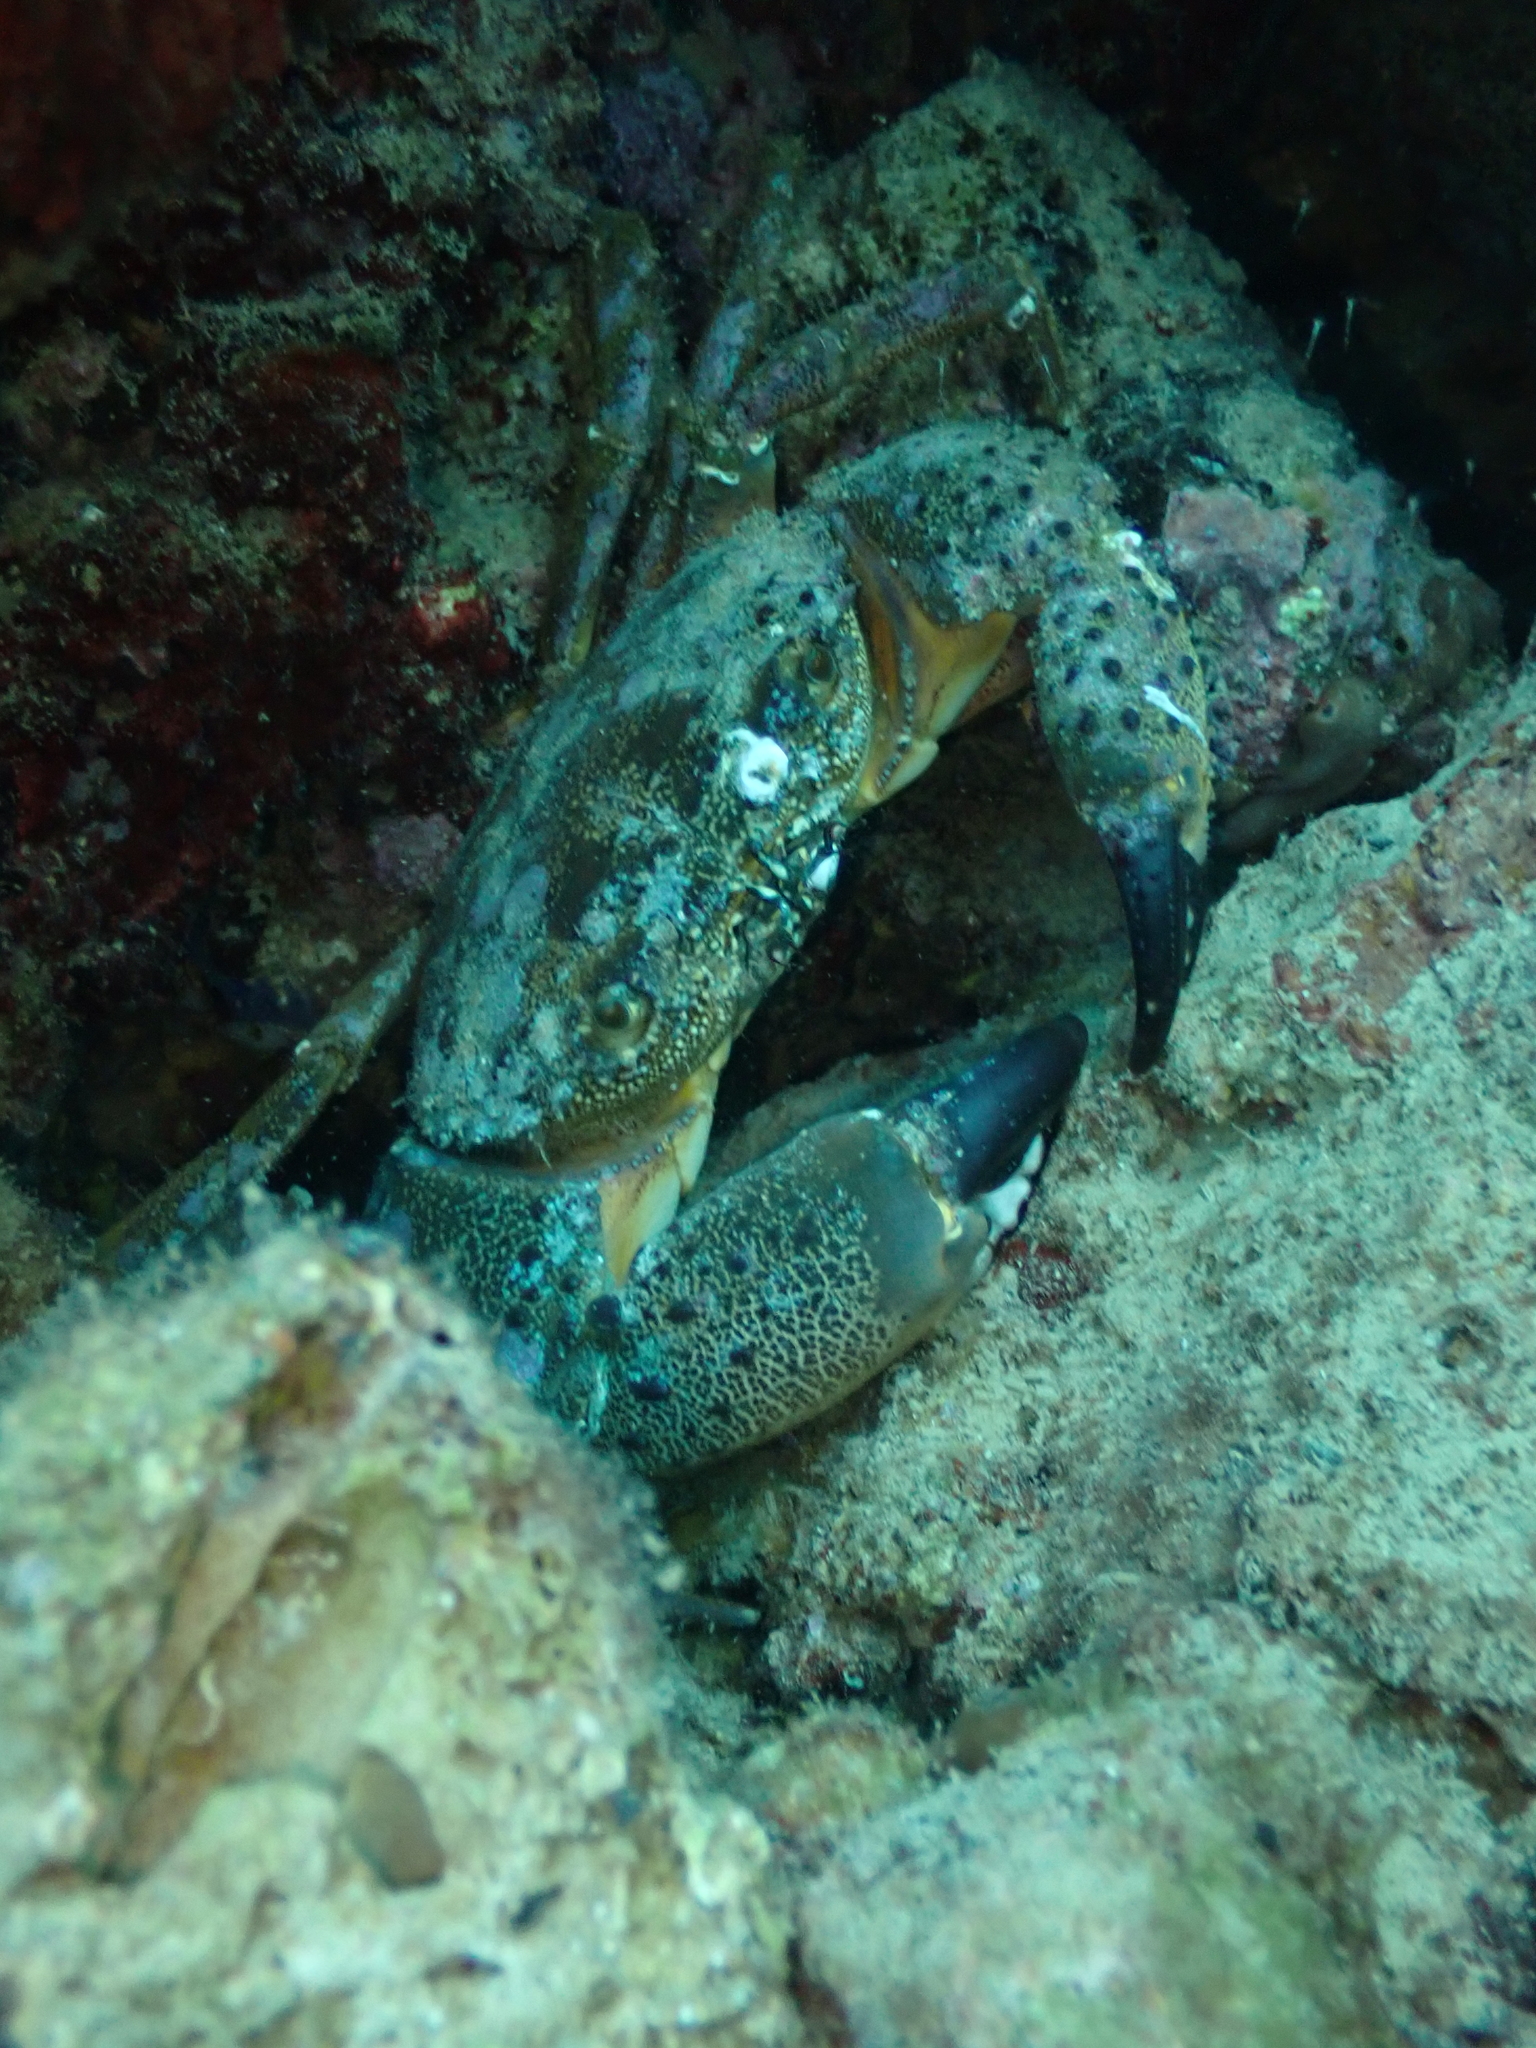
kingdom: Animalia
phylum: Arthropoda
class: Malacostraca
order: Decapoda
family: Eriphiidae
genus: Eriphia
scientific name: Eriphia verrucosa
